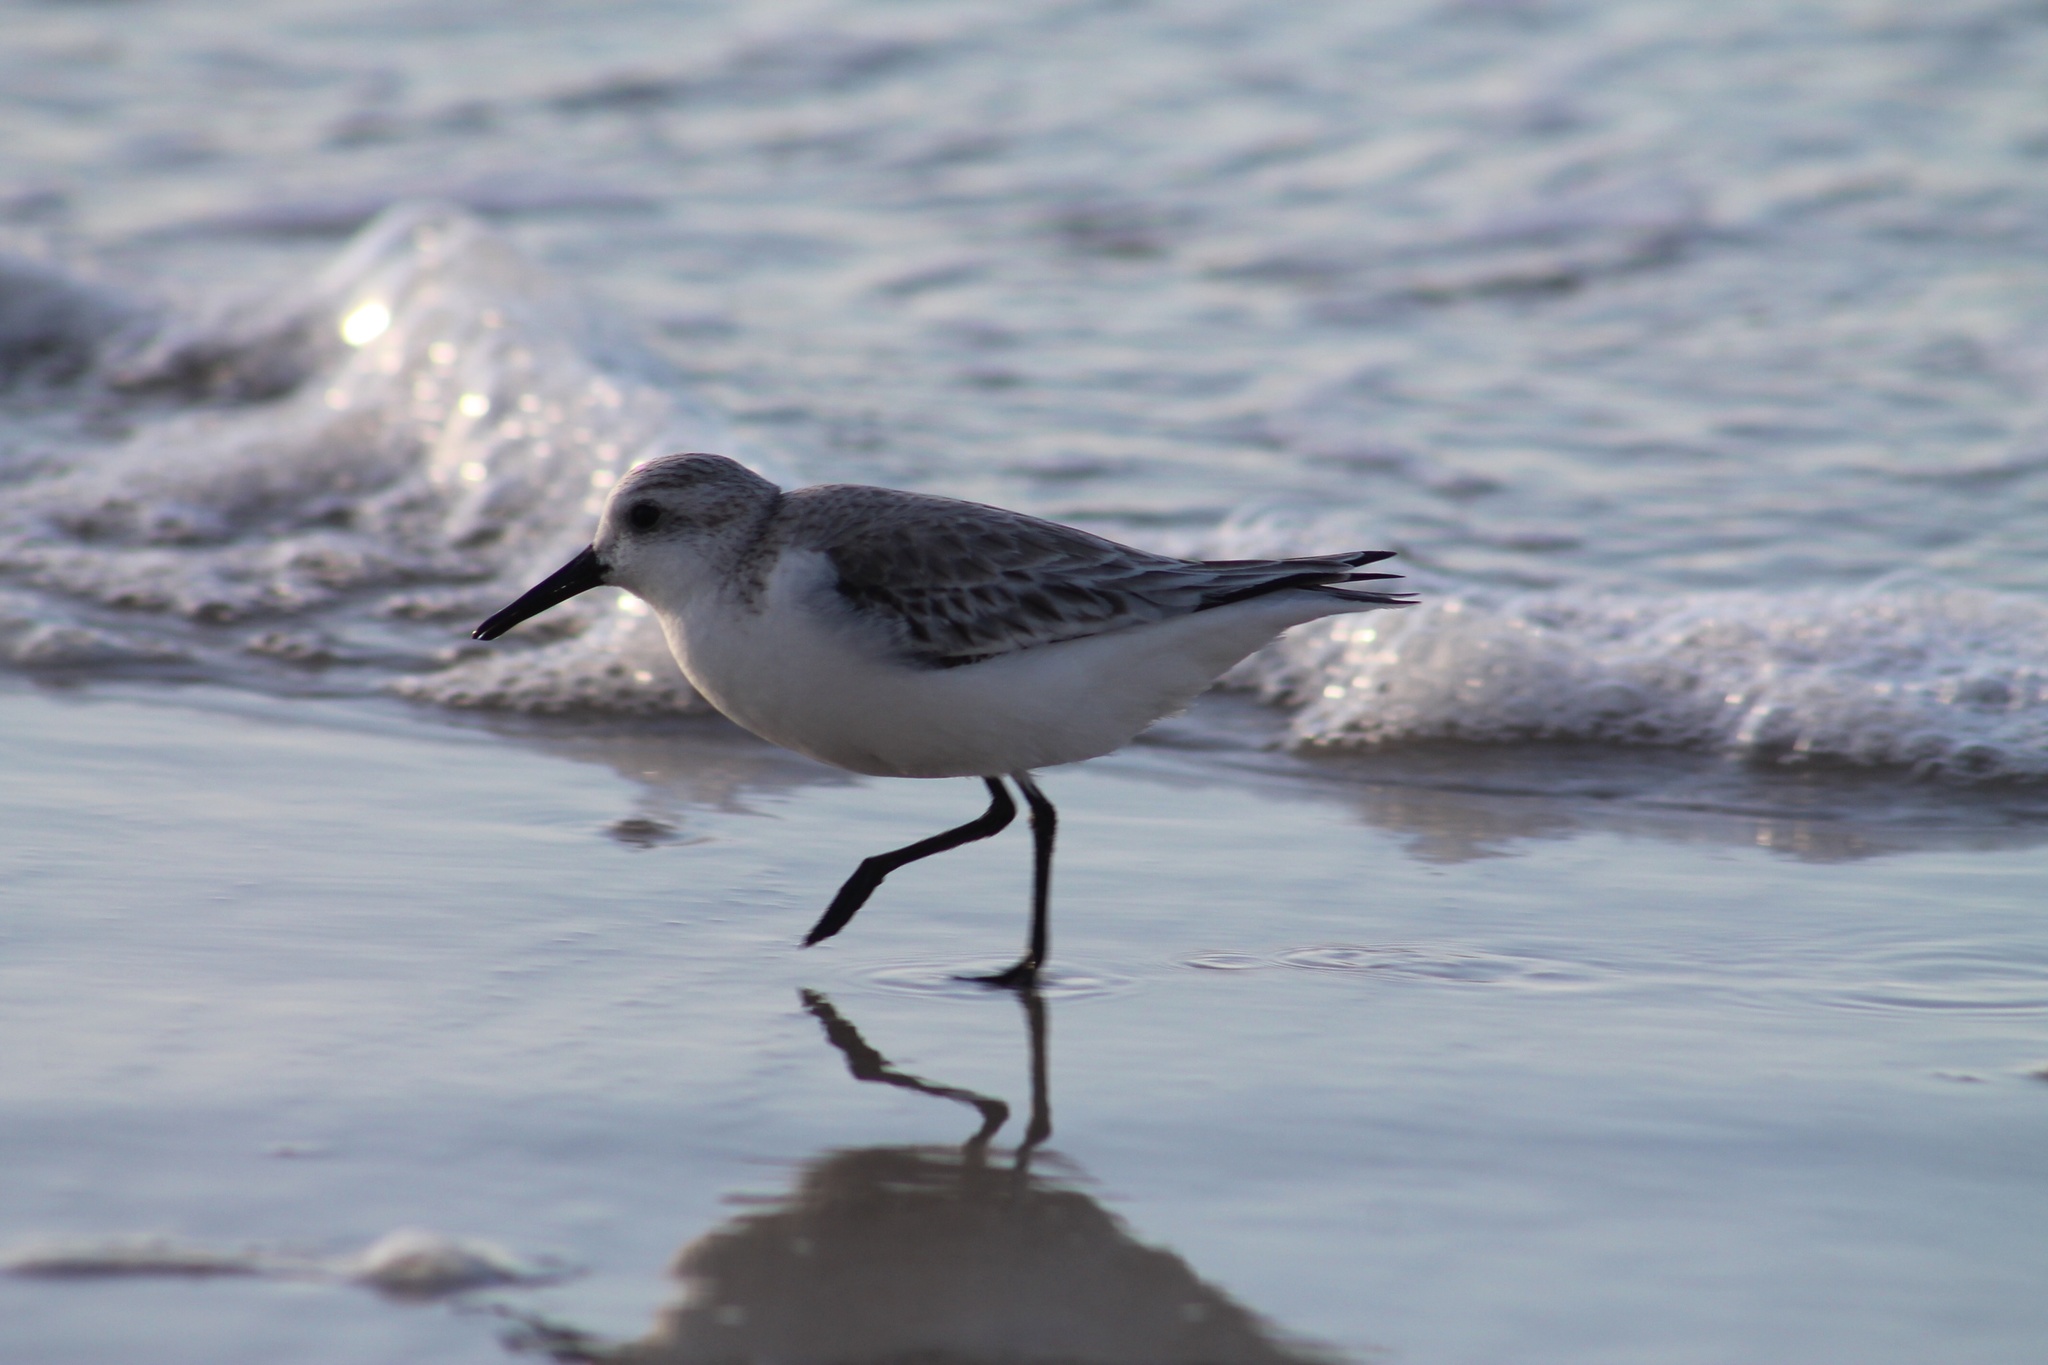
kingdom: Animalia
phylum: Chordata
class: Aves
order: Charadriiformes
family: Scolopacidae
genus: Calidris
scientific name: Calidris alba
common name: Sanderling
